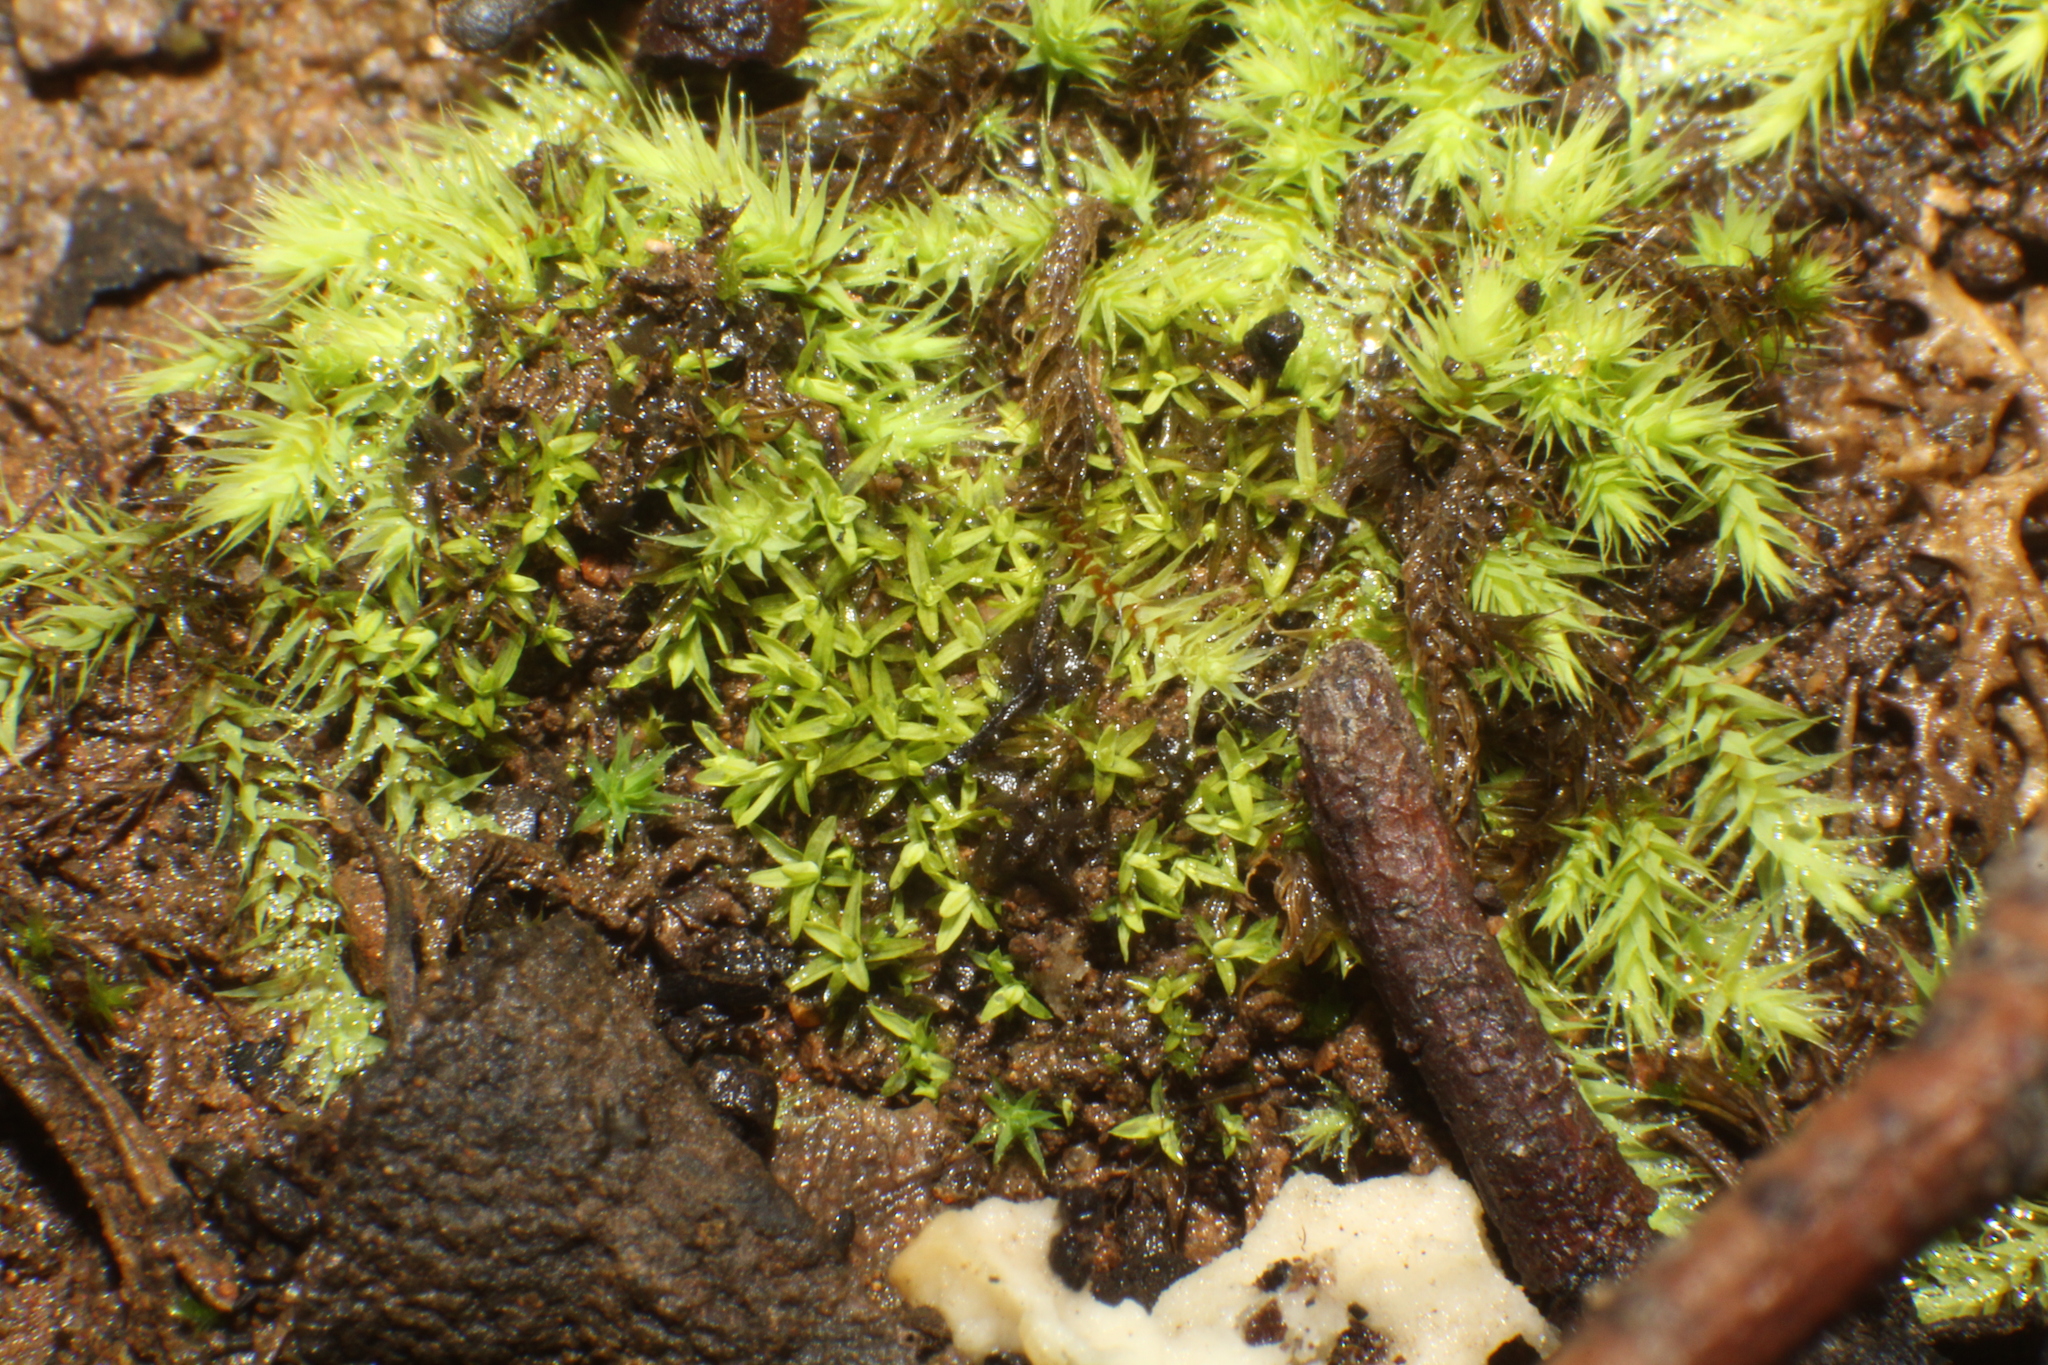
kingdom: Plantae
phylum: Bryophyta
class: Bryopsida
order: Bartramiales
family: Bartramiaceae
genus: Breutelia
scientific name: Breutelia affinis
